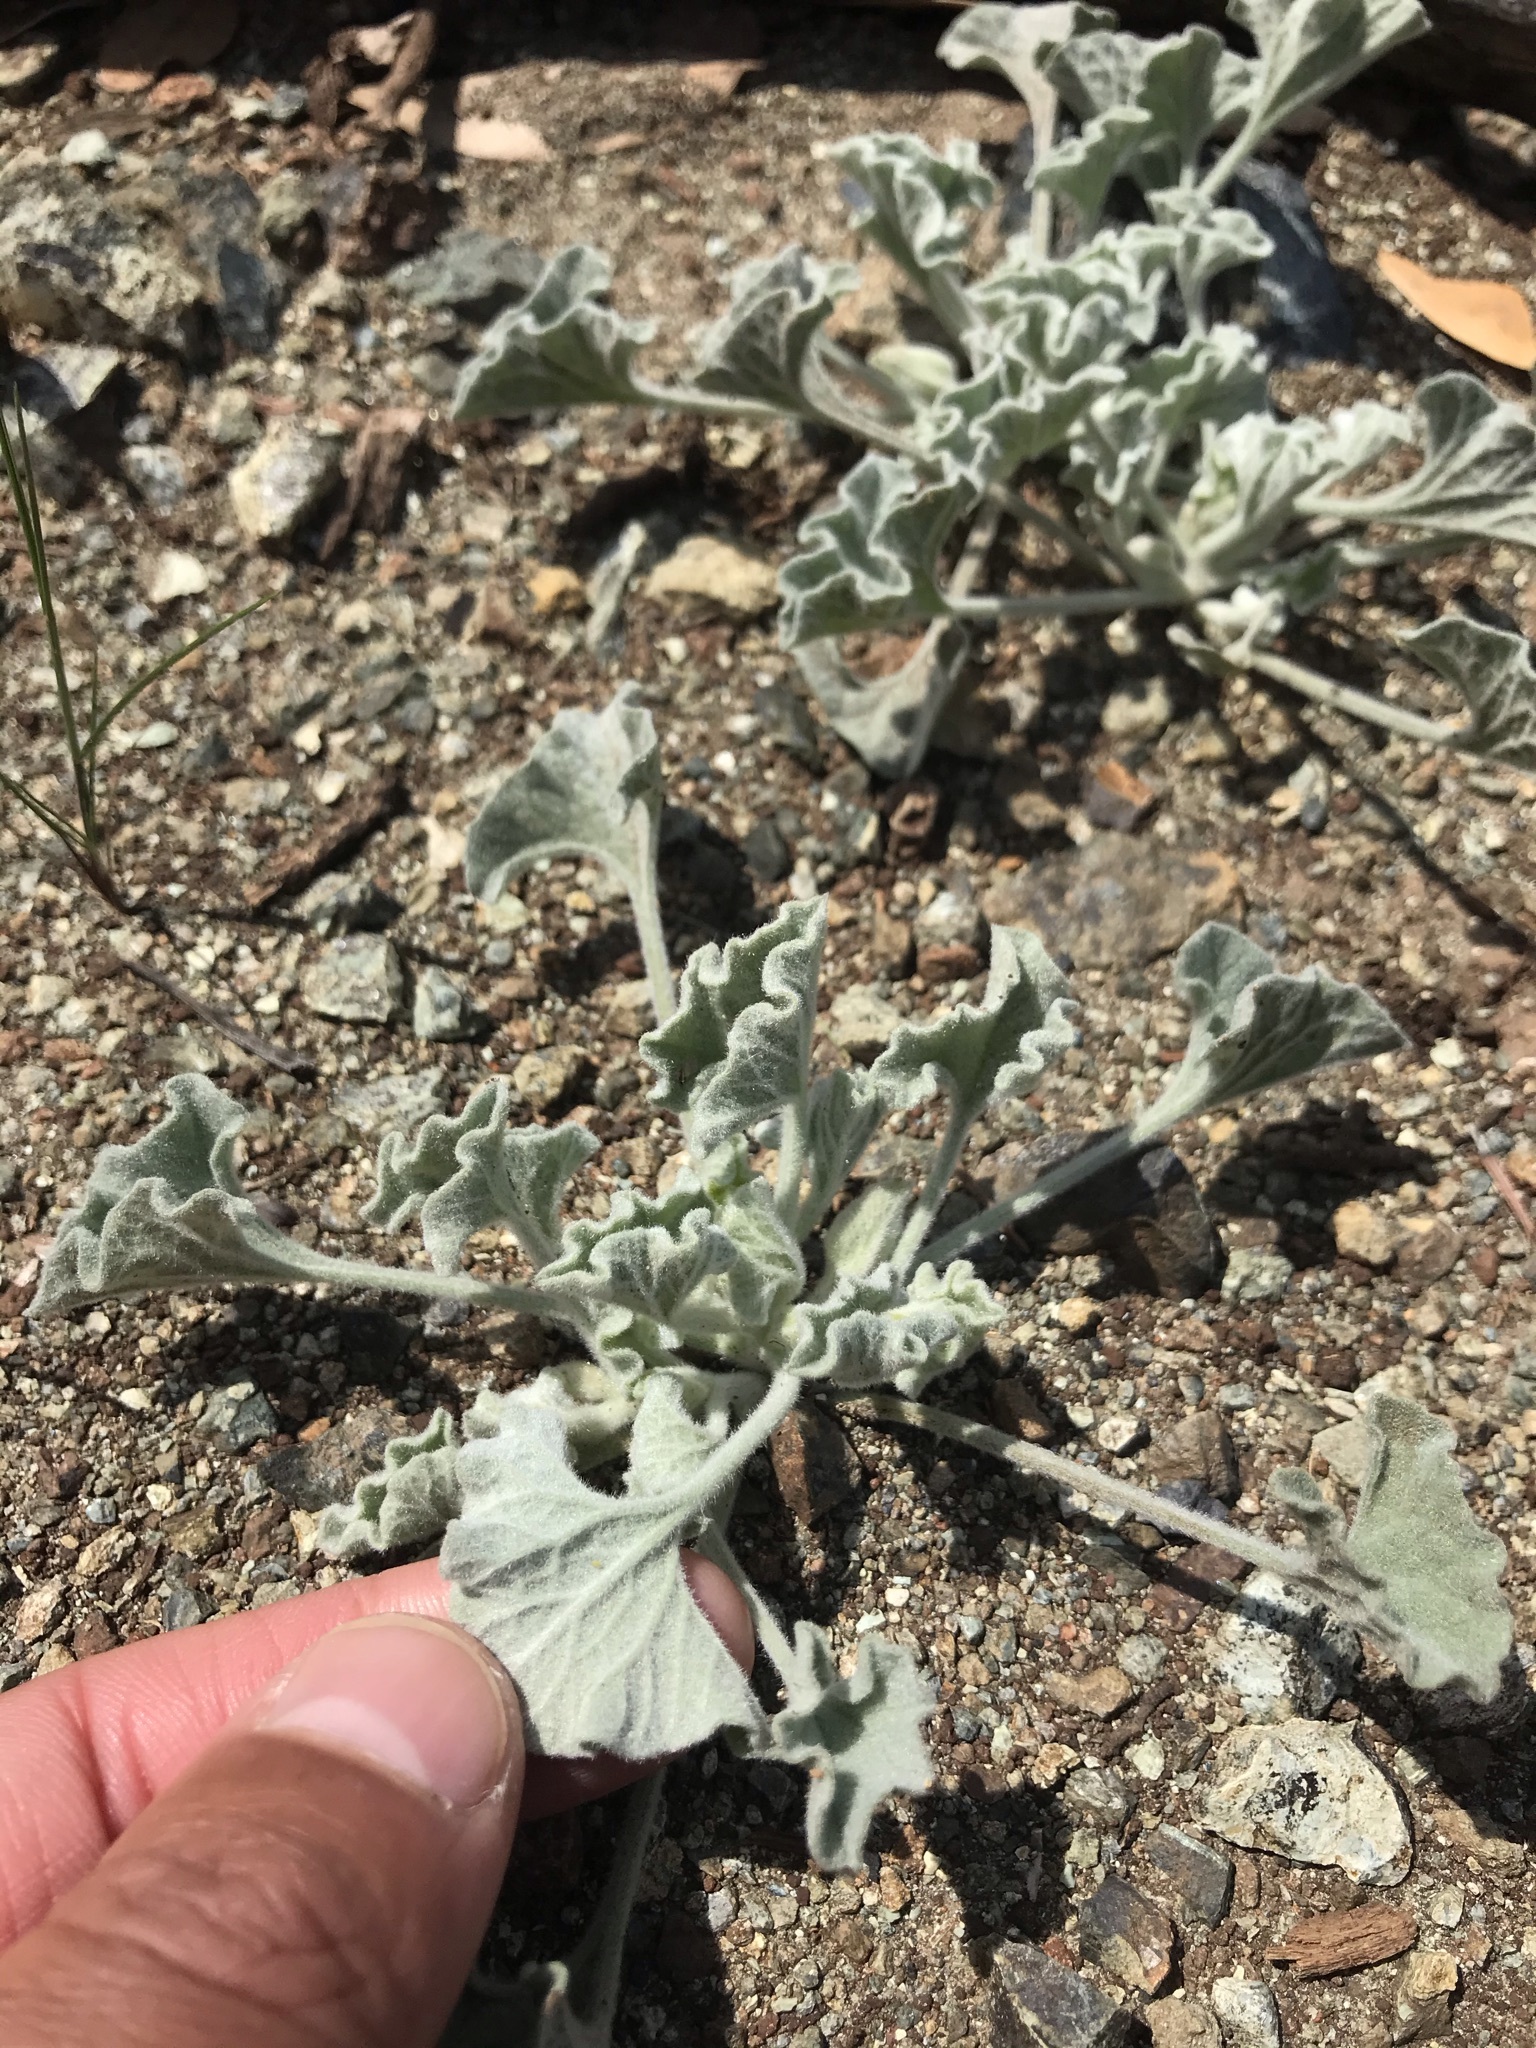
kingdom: Plantae
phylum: Tracheophyta
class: Magnoliopsida
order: Solanales
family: Convolvulaceae
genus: Calystegia
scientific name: Calystegia collina
